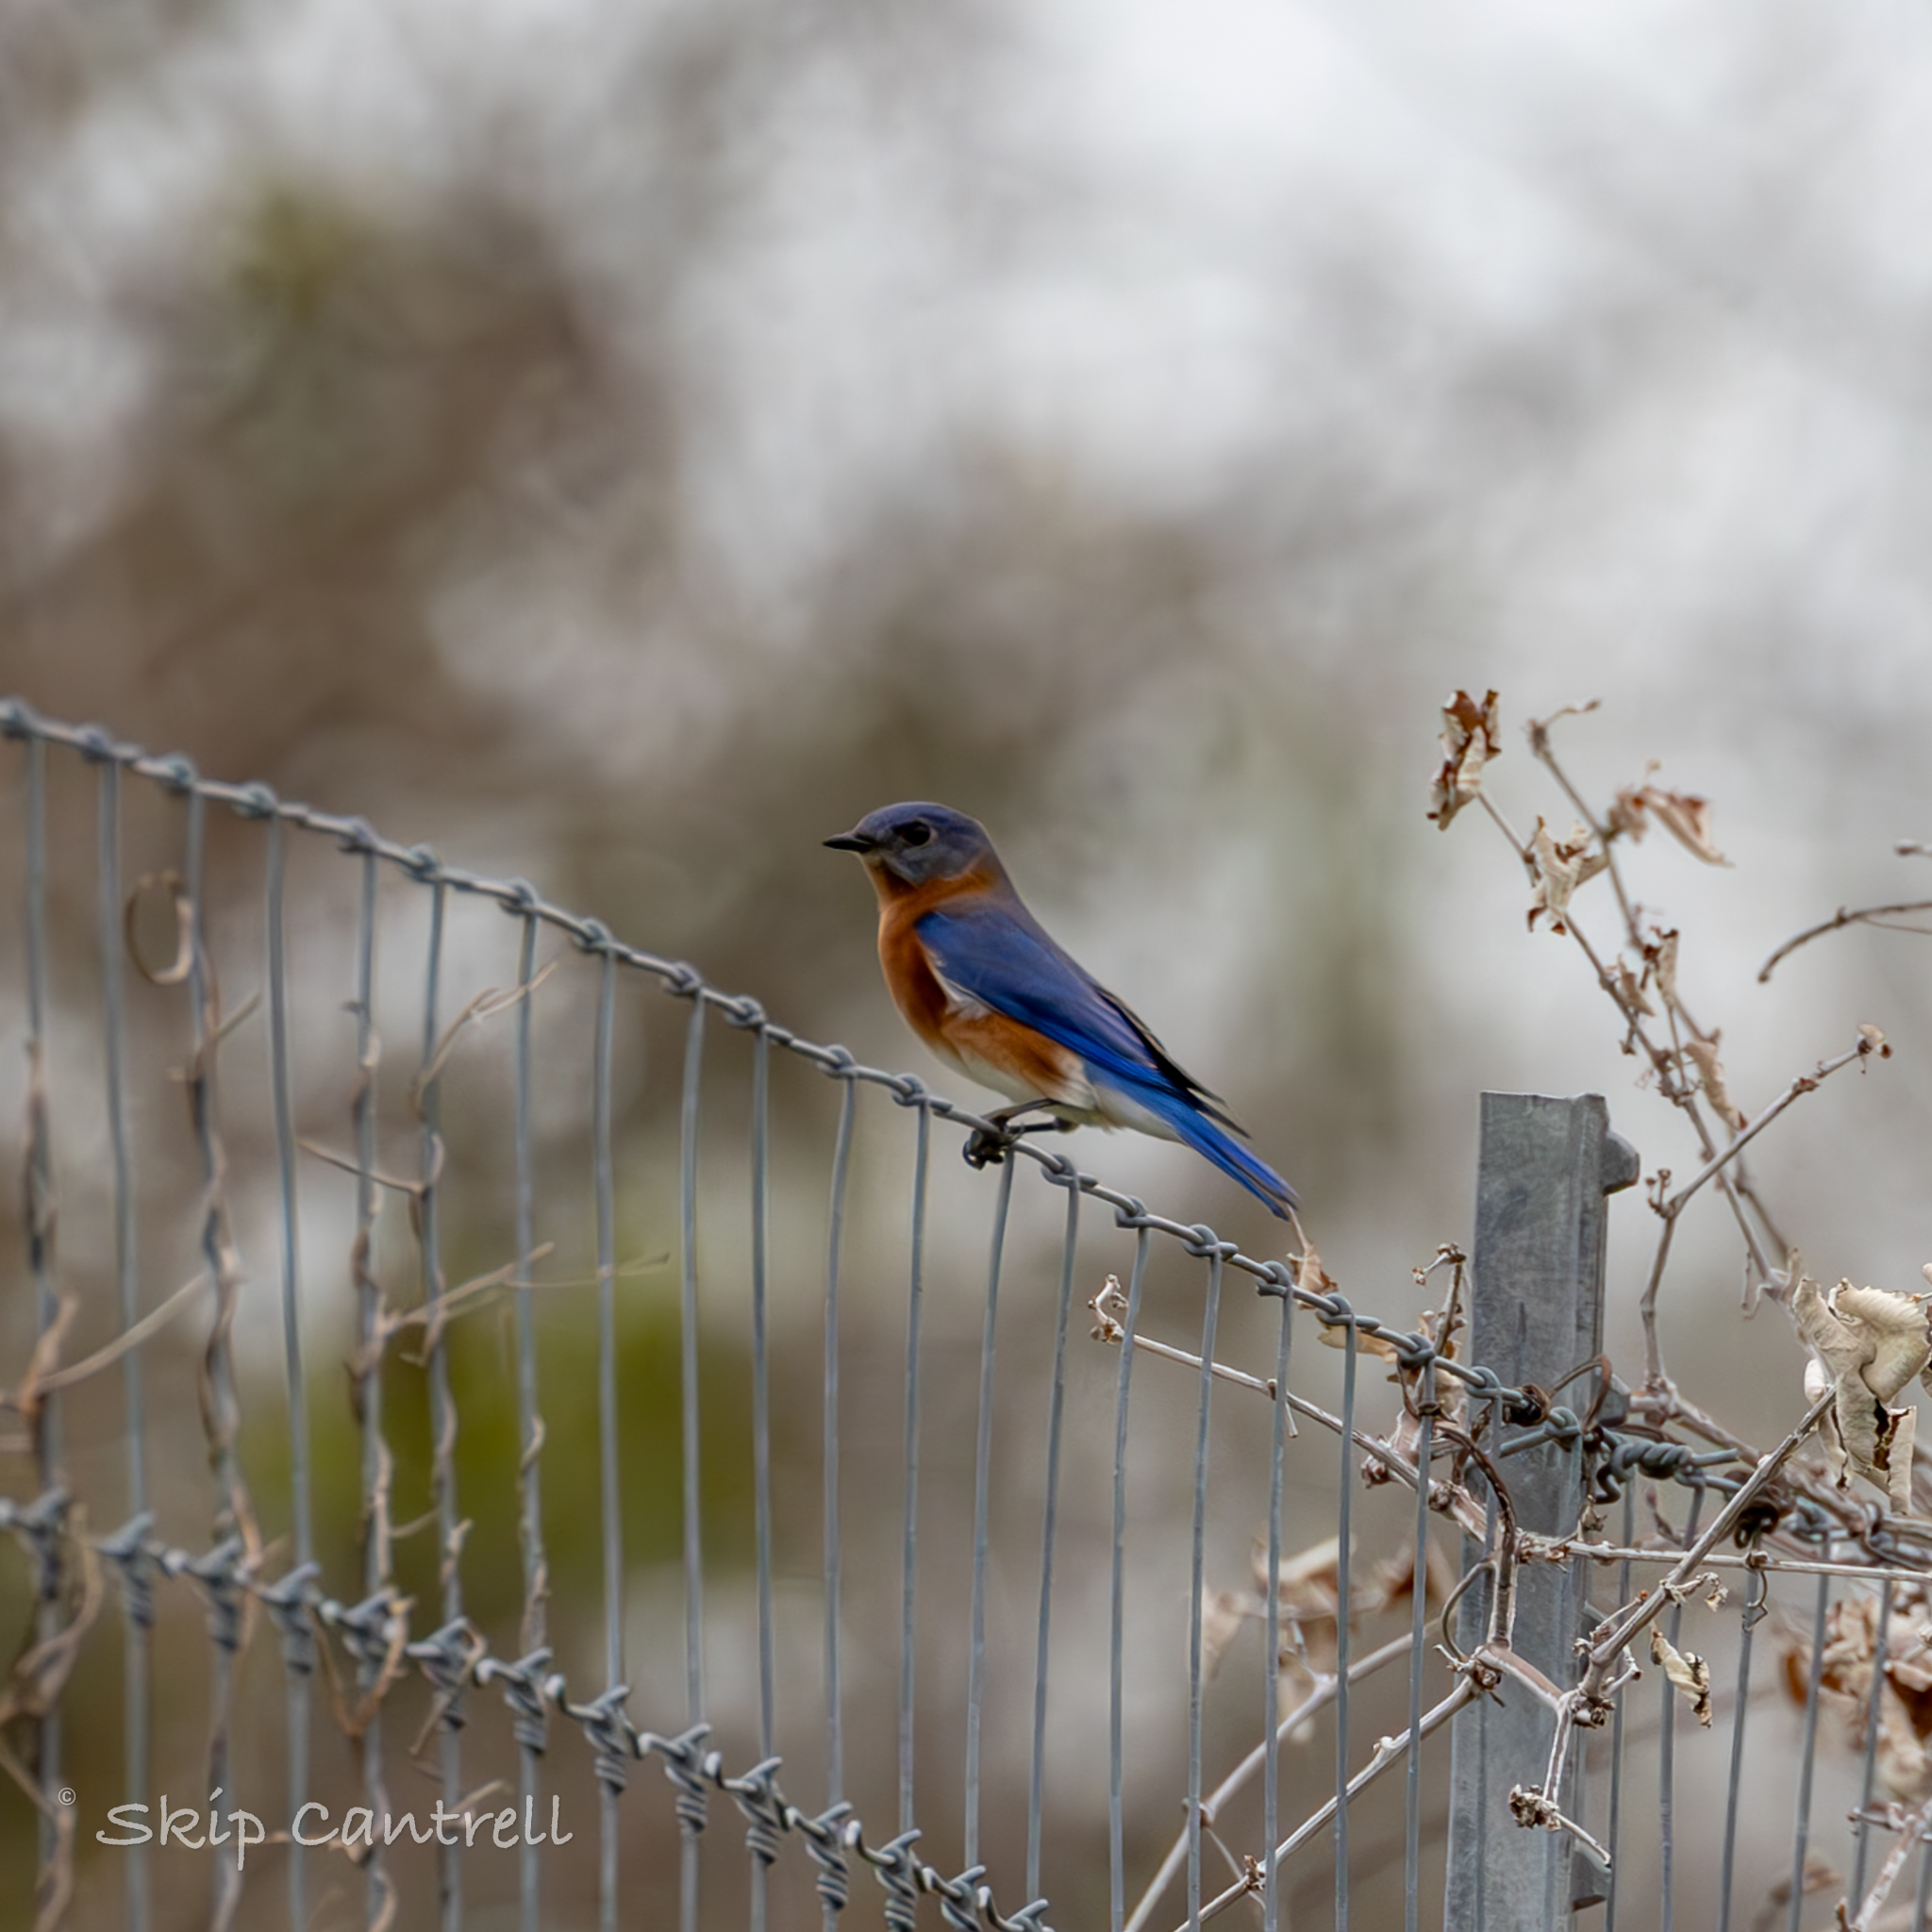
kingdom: Animalia
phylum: Chordata
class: Aves
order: Passeriformes
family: Turdidae
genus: Sialia
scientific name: Sialia sialis
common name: Eastern bluebird
